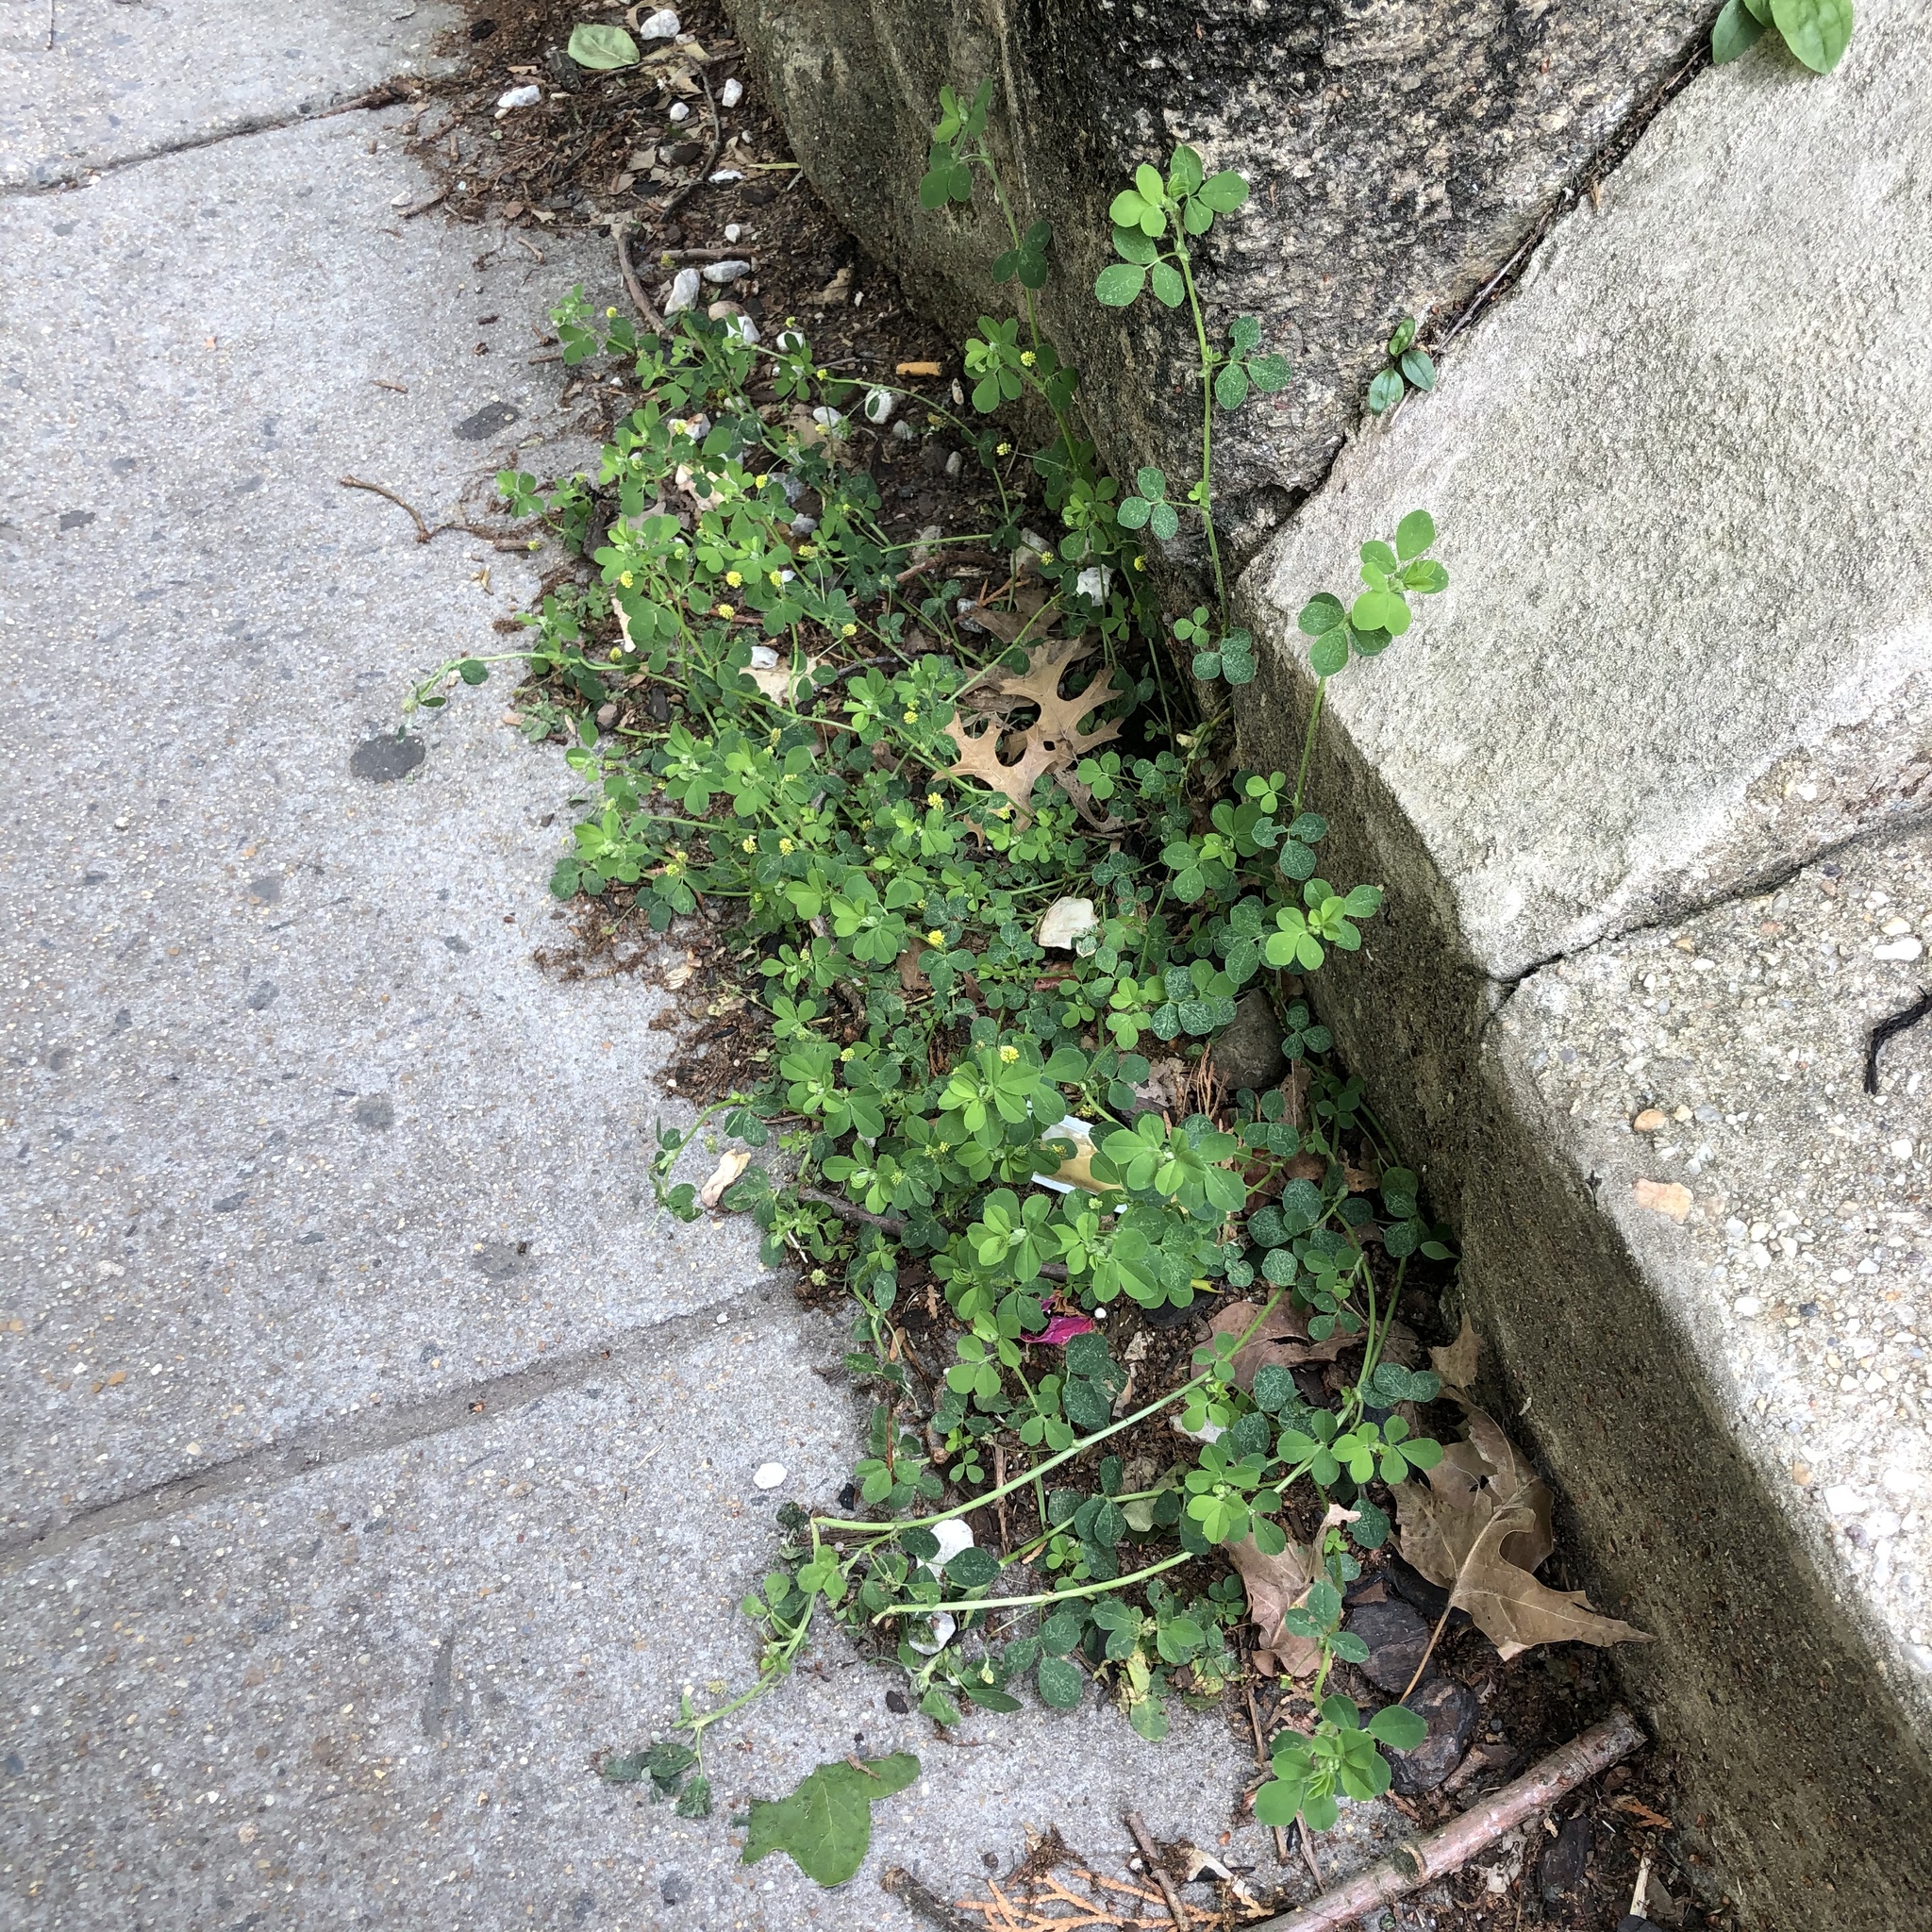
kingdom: Plantae
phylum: Tracheophyta
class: Magnoliopsida
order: Fabales
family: Fabaceae
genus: Medicago
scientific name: Medicago lupulina
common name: Black medick
